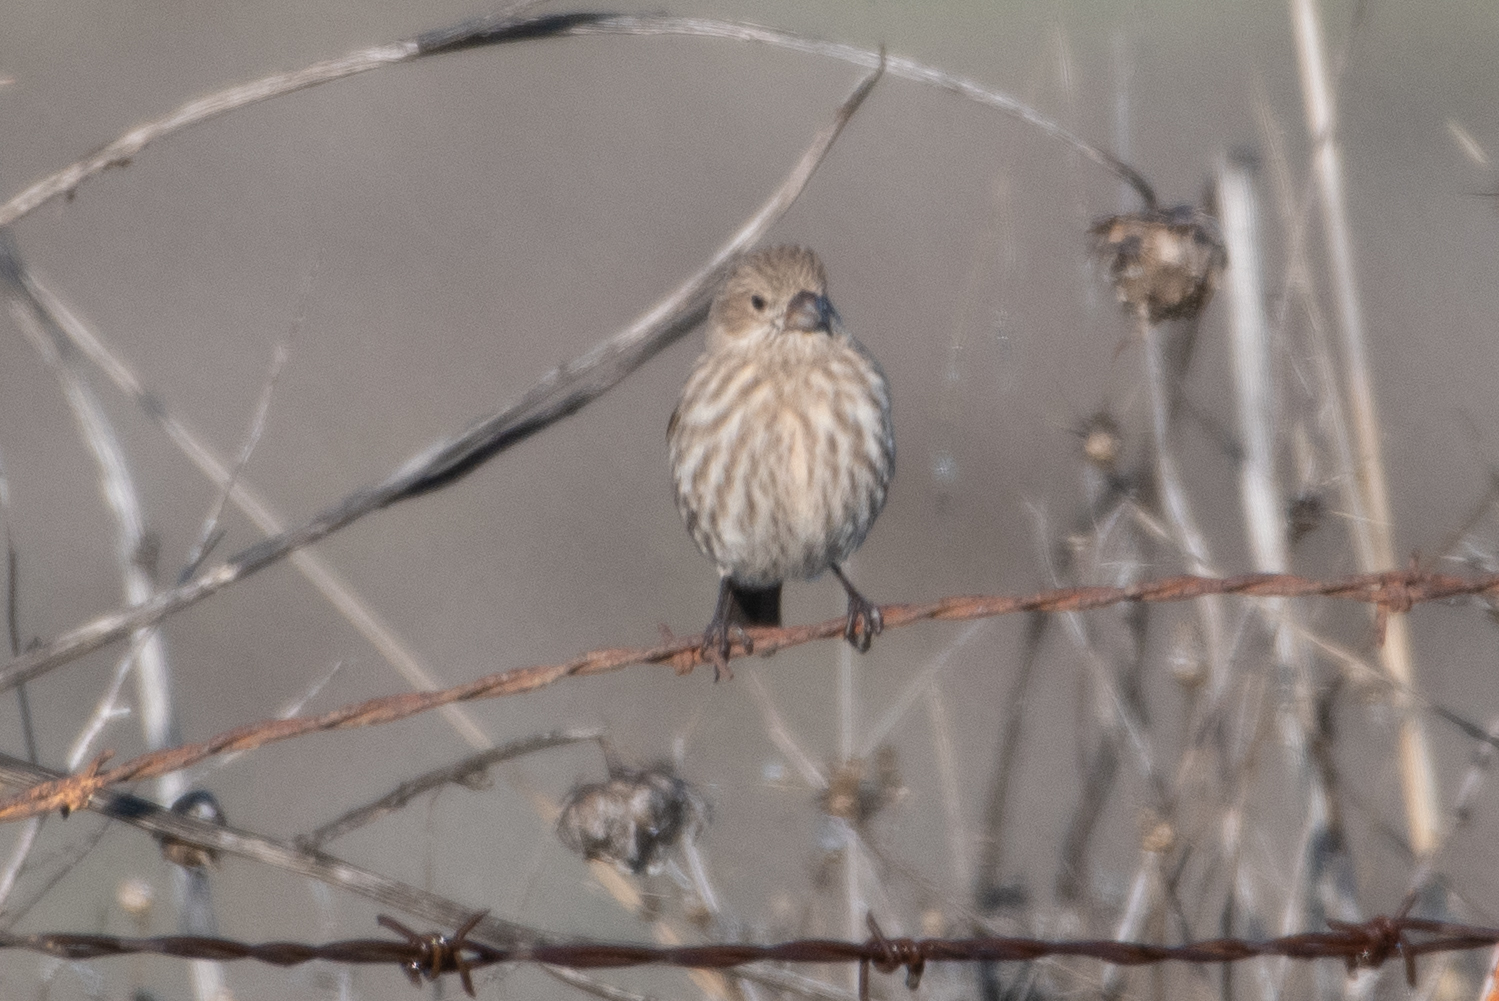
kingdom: Animalia
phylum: Chordata
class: Aves
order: Passeriformes
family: Fringillidae
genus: Haemorhous
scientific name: Haemorhous mexicanus
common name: House finch
